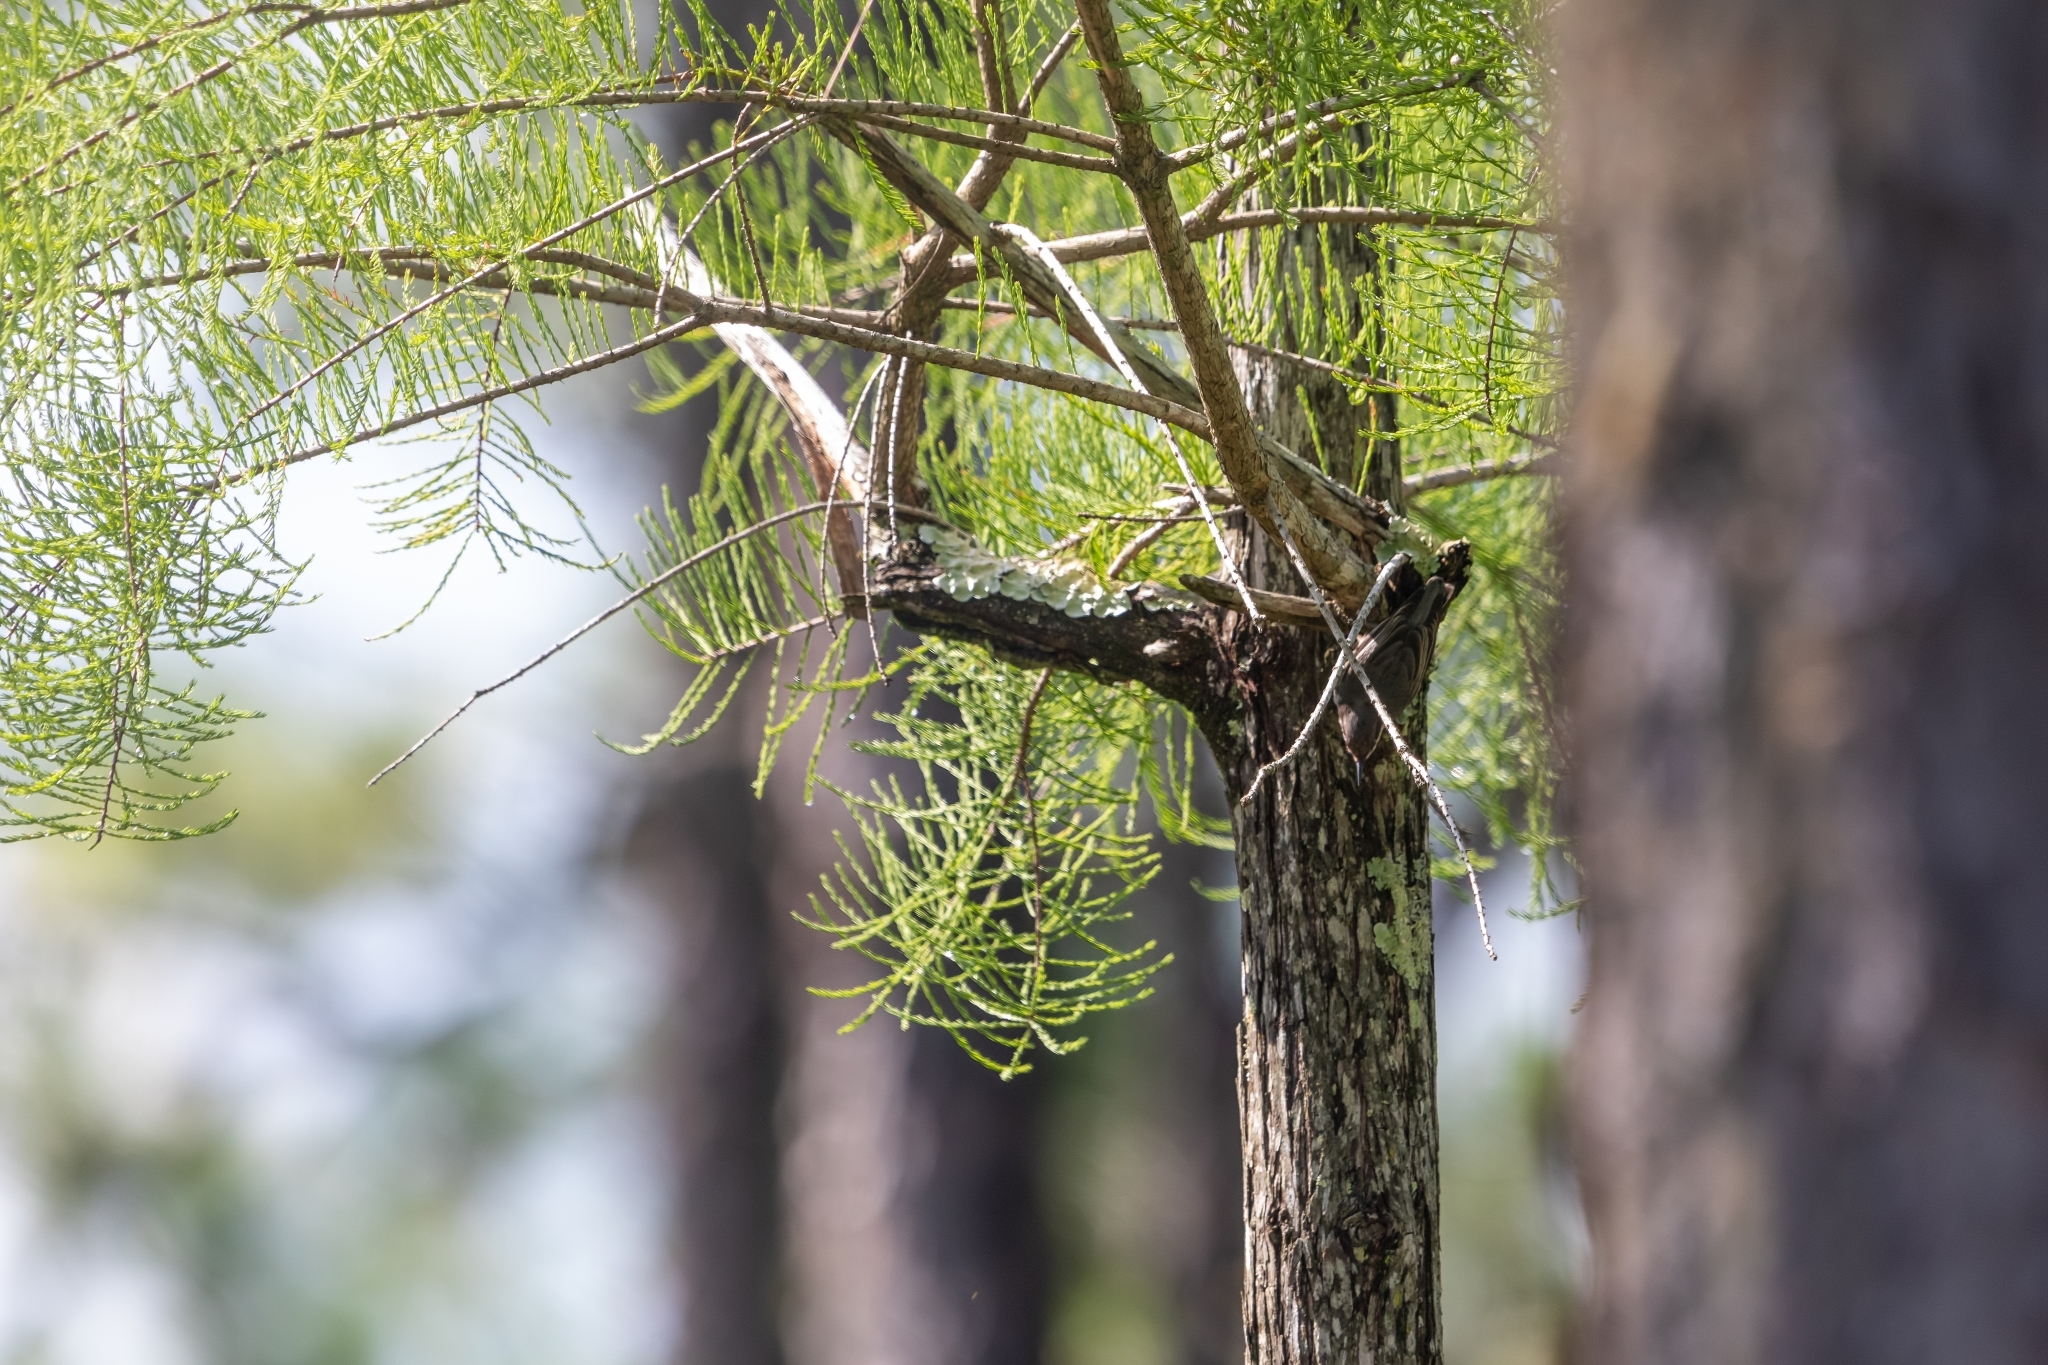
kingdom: Animalia
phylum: Chordata
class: Aves
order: Passeriformes
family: Sittidae
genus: Sitta
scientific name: Sitta pusilla
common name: Brown-headed nuthatch
